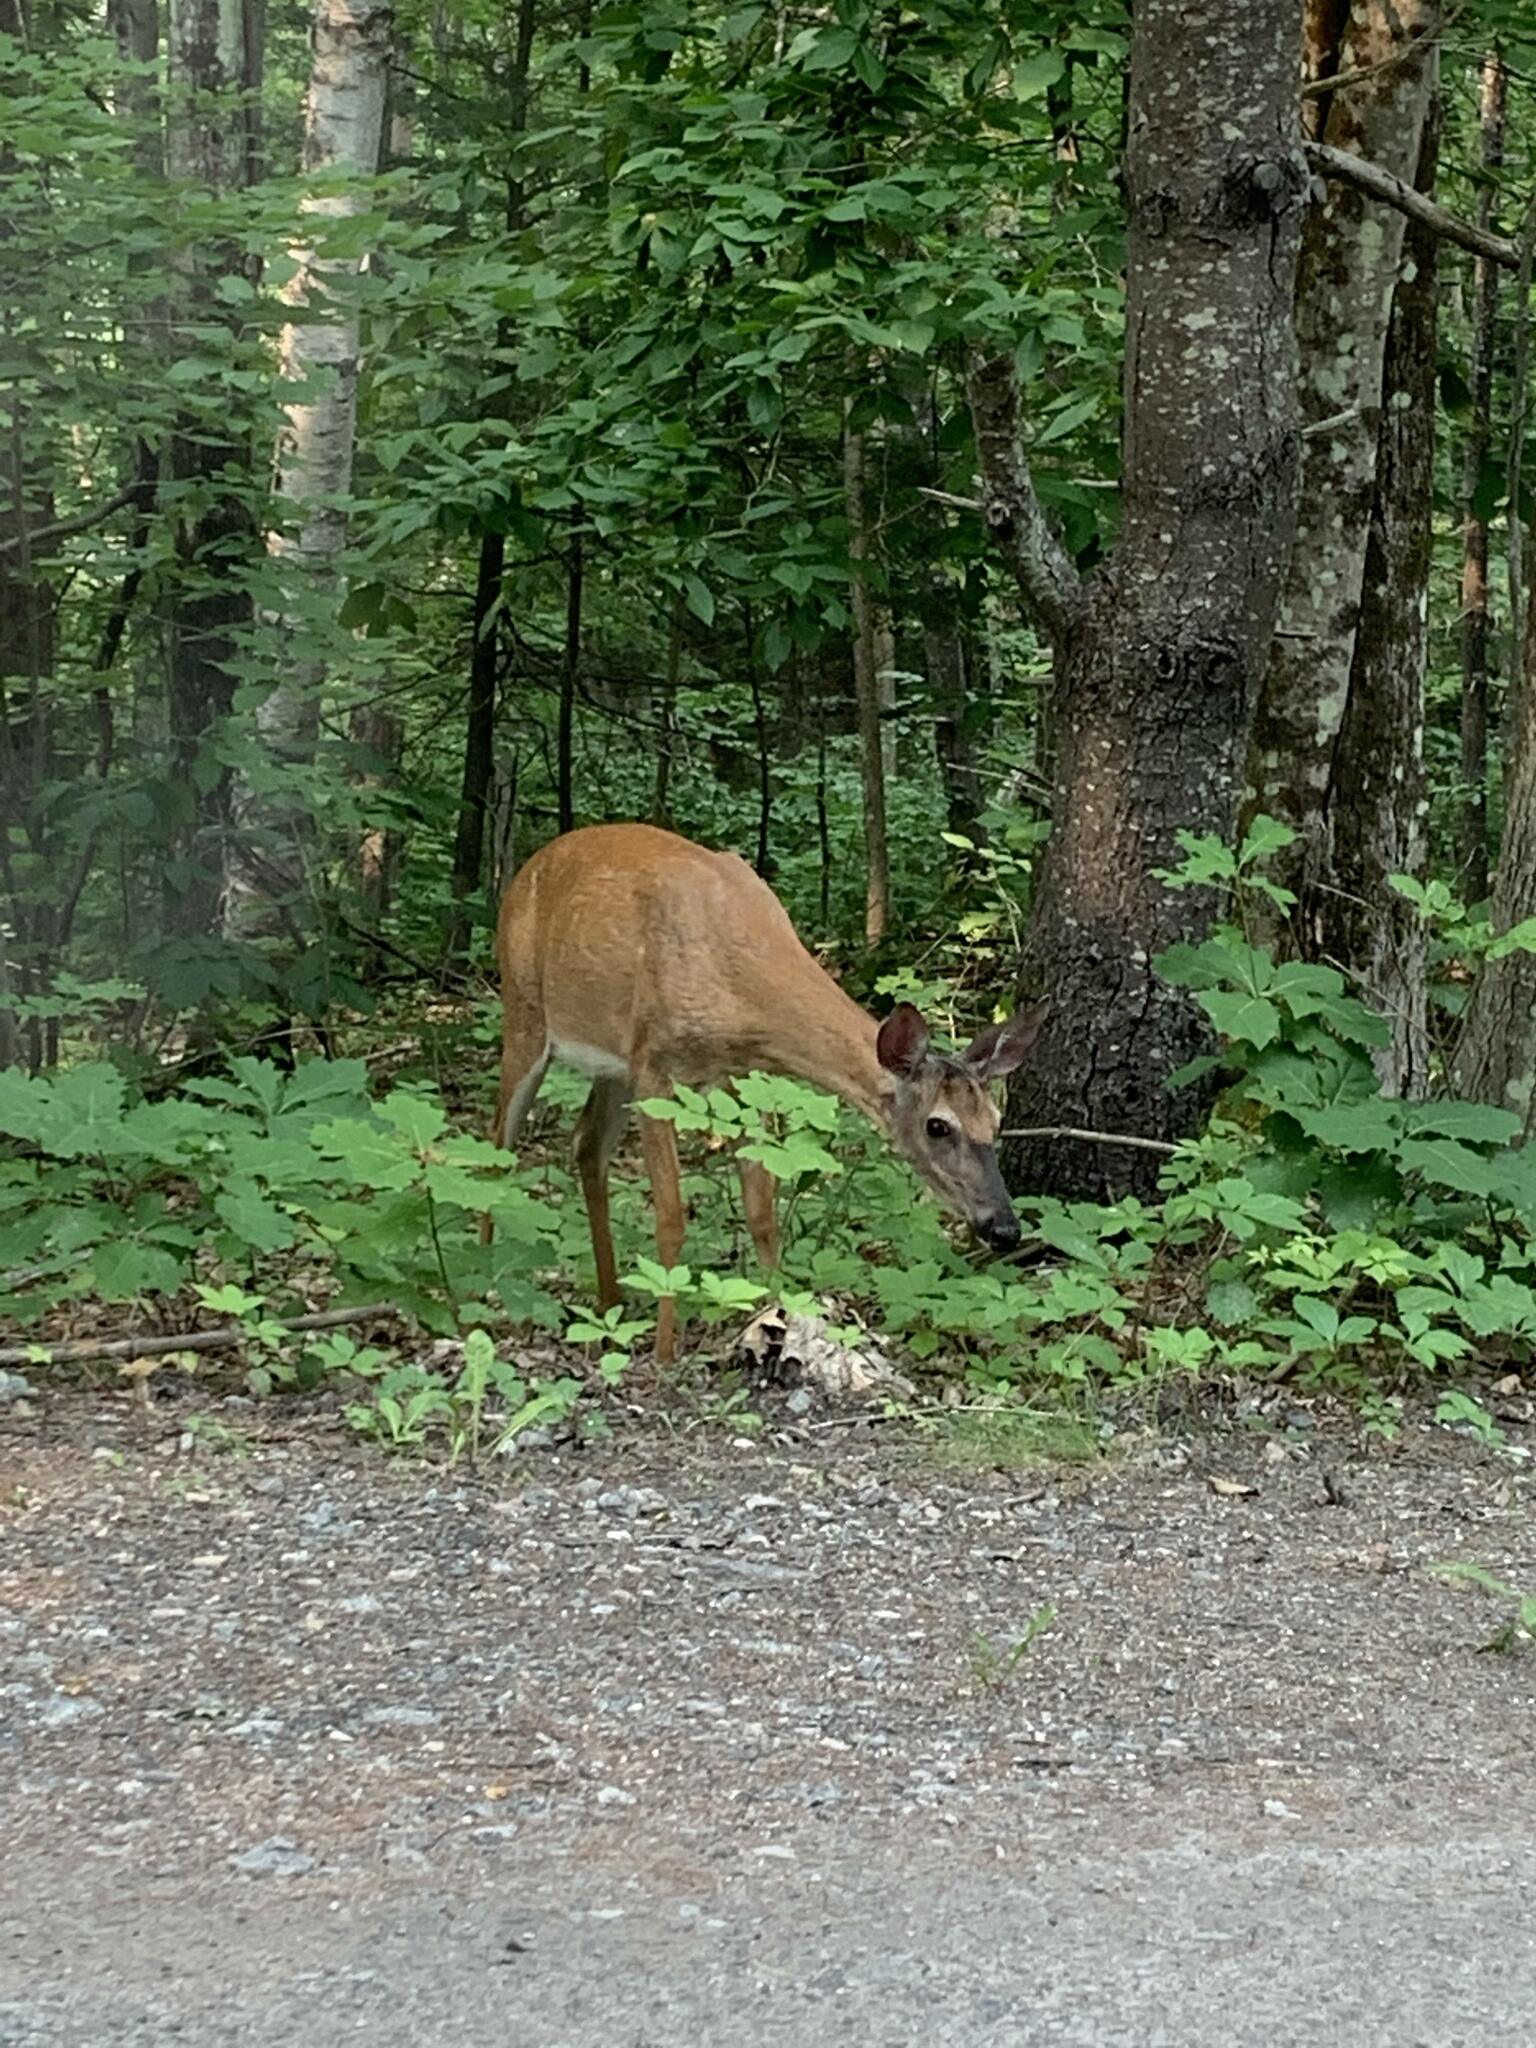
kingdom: Animalia
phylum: Chordata
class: Mammalia
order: Artiodactyla
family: Cervidae
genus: Odocoileus
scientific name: Odocoileus virginianus
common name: White-tailed deer
